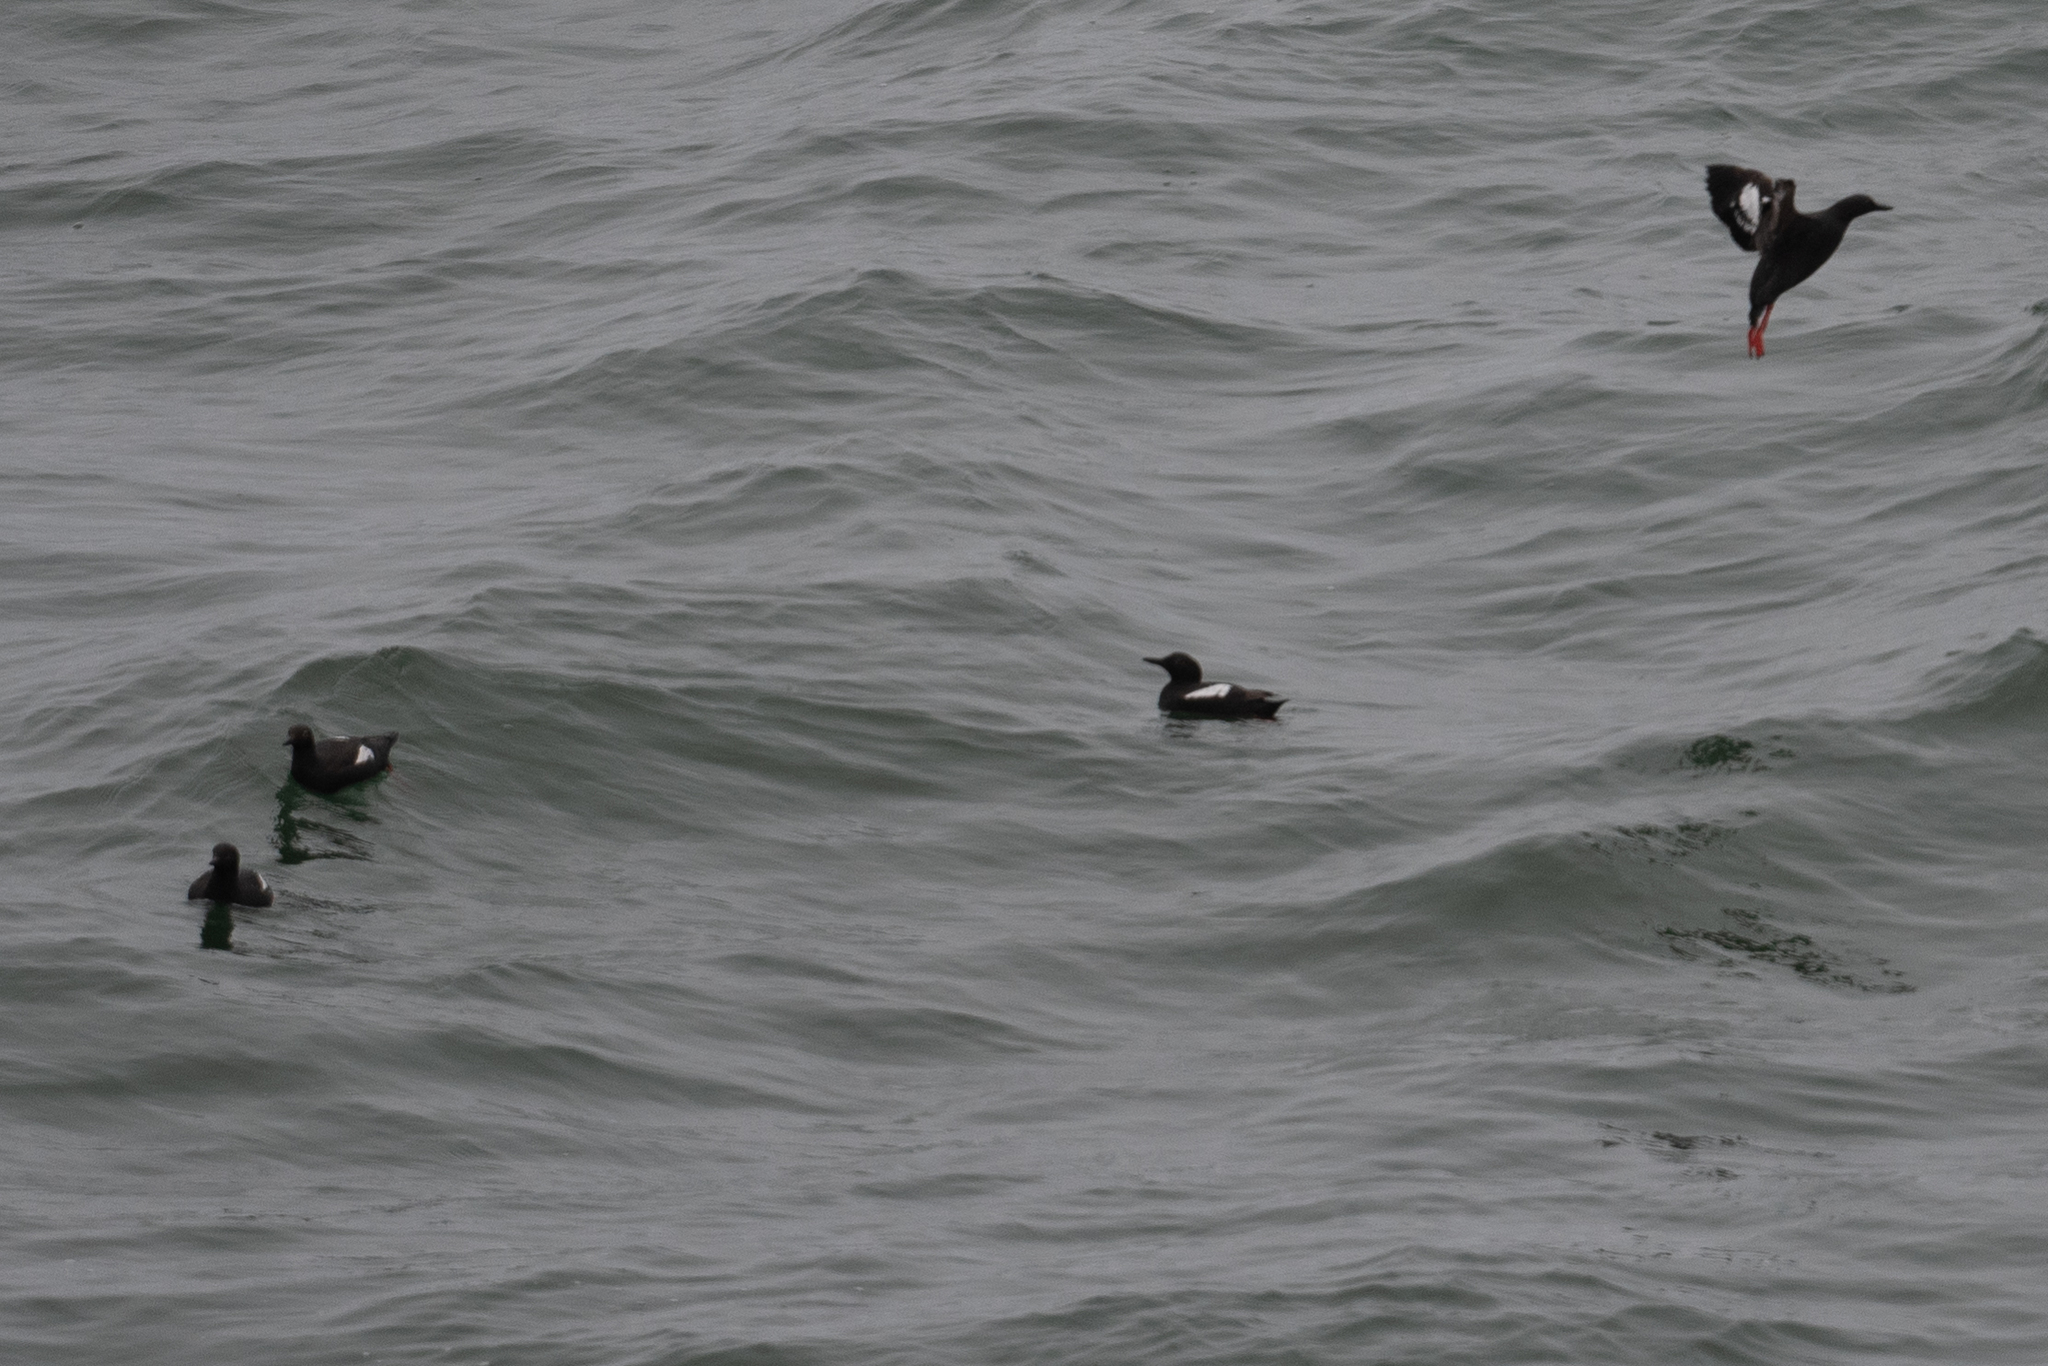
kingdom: Animalia
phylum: Chordata
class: Aves
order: Charadriiformes
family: Alcidae
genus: Cepphus
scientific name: Cepphus columba
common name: Pigeon guillemot
